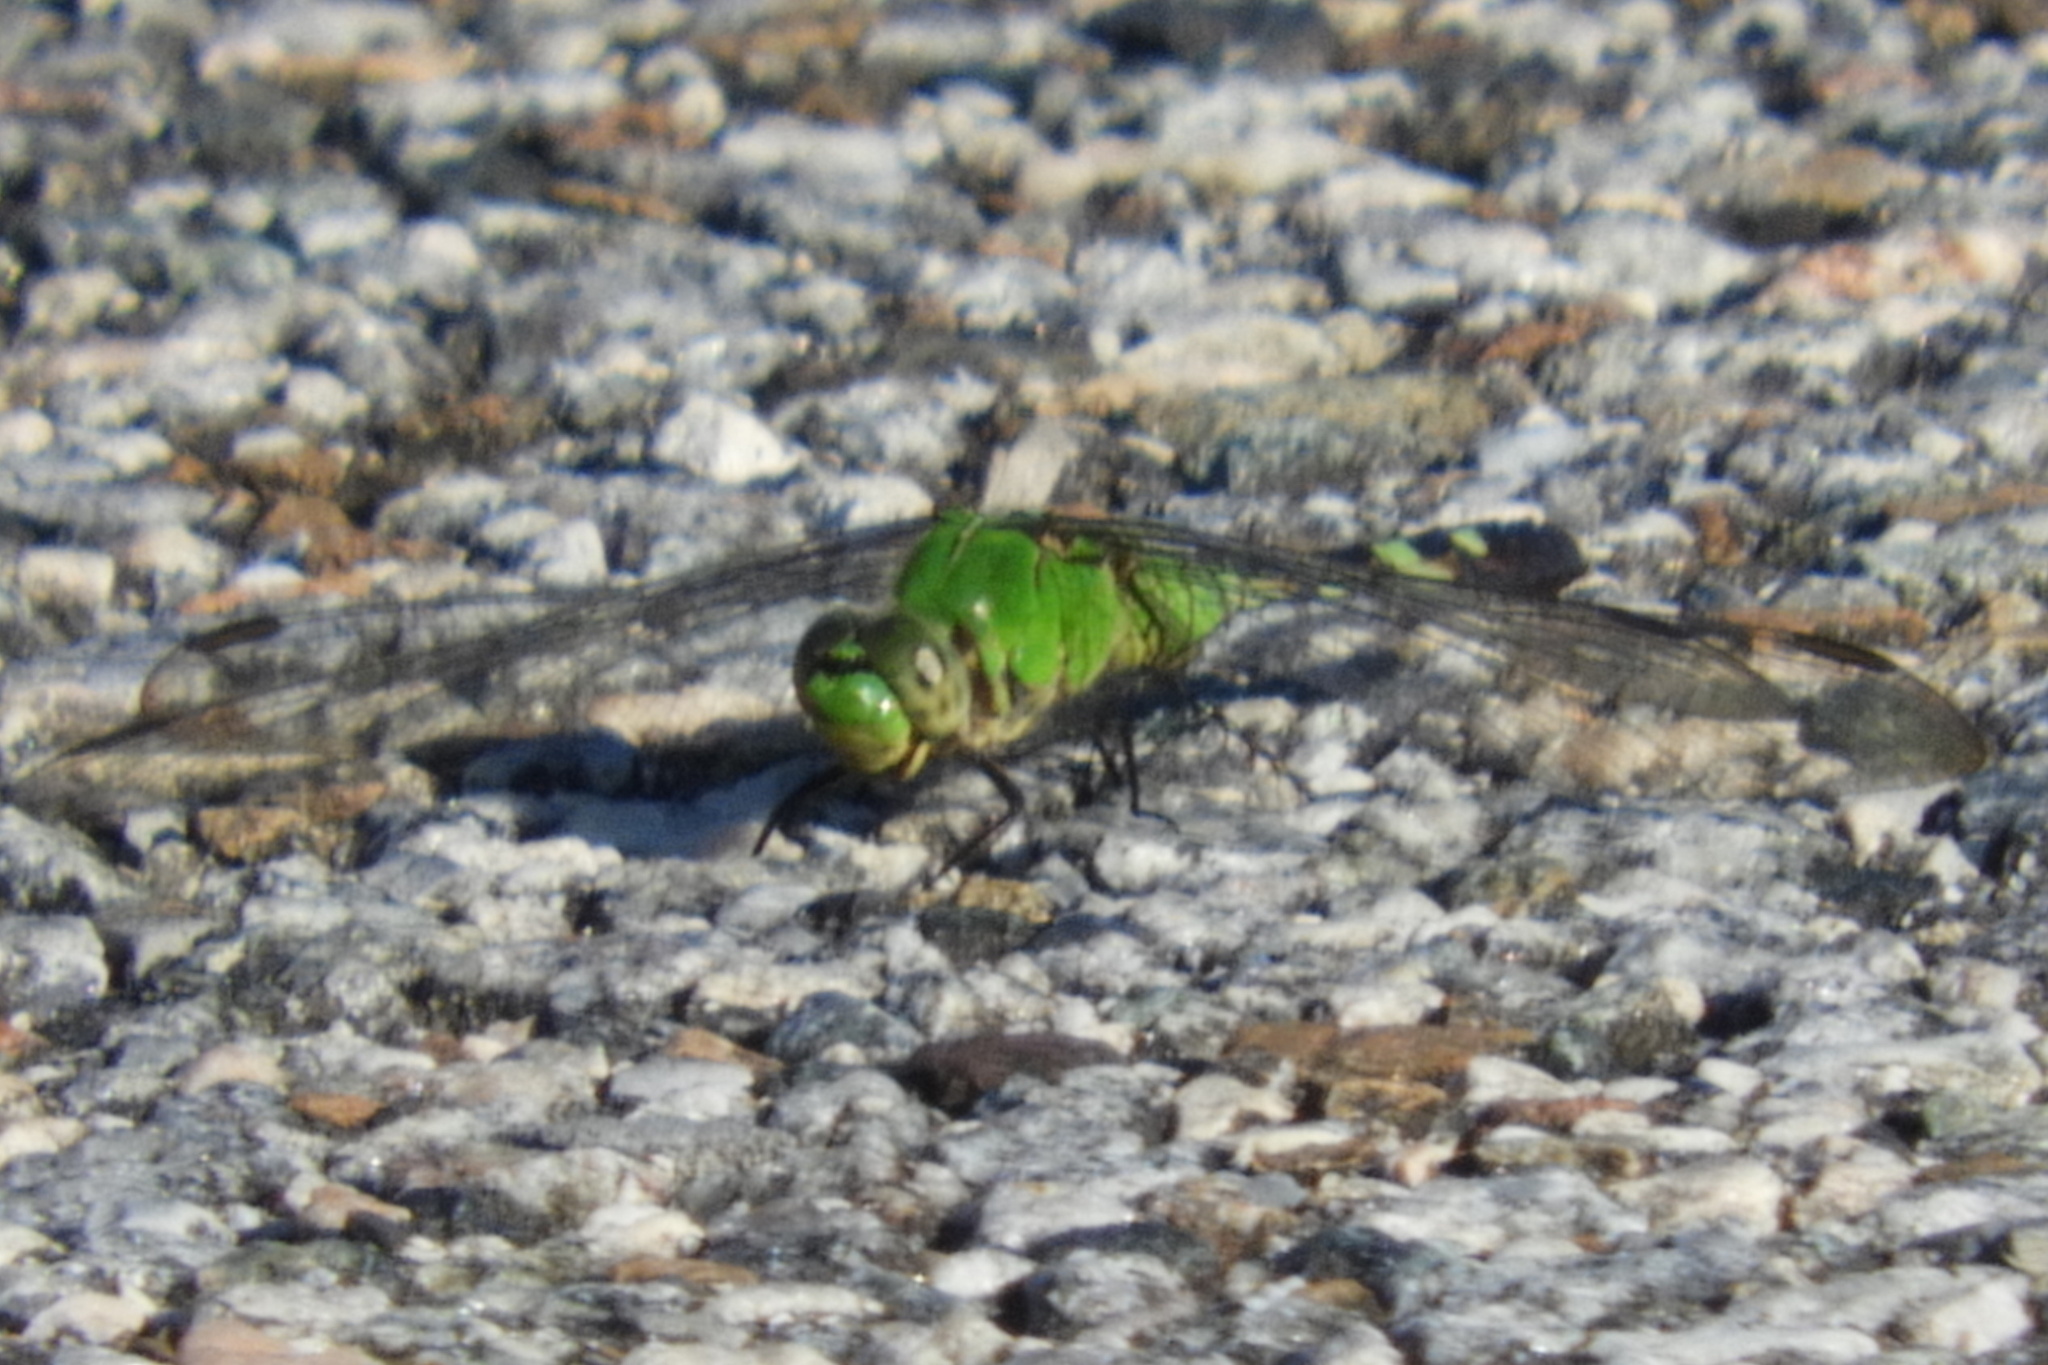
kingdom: Animalia
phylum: Arthropoda
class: Insecta
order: Odonata
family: Libellulidae
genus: Erythemis
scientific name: Erythemis simplicicollis
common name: Eastern pondhawk
